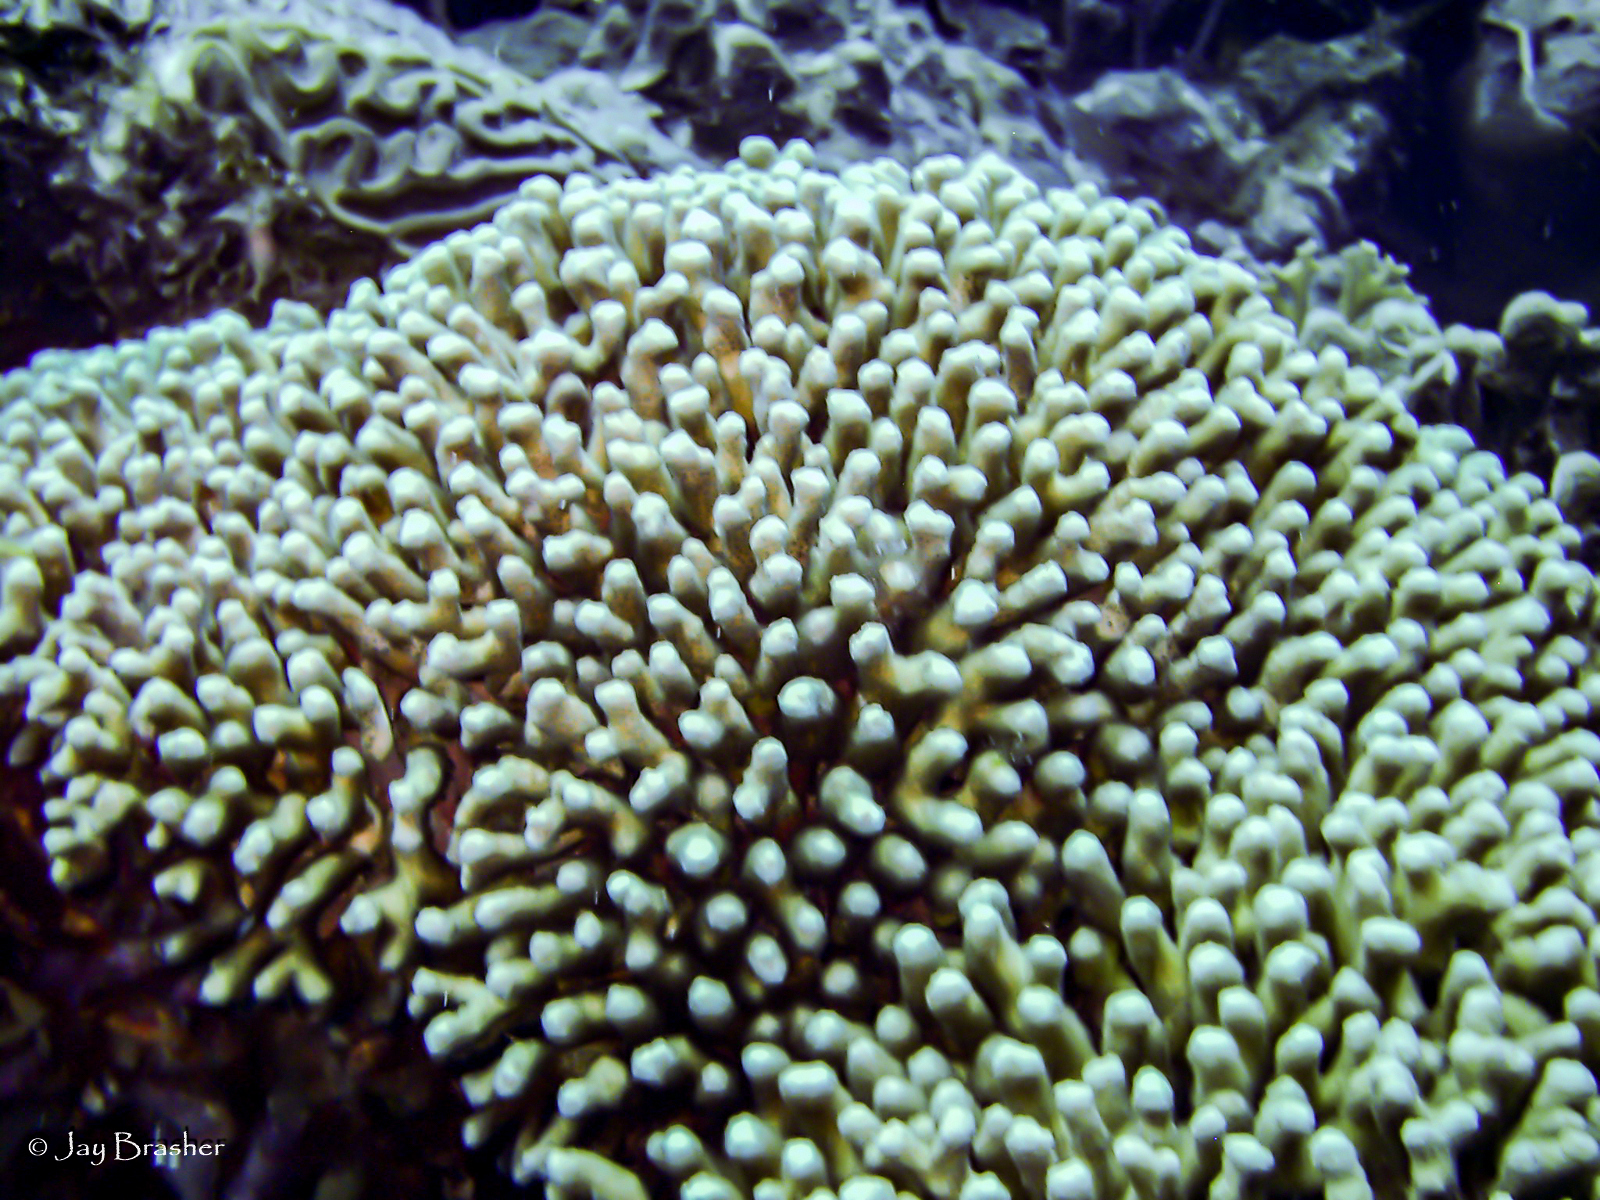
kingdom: Animalia
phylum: Cnidaria
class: Anthozoa
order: Scleractinia
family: Pocilloporidae
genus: Madracis
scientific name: Madracis auretenra
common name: Yellow pencil coral
